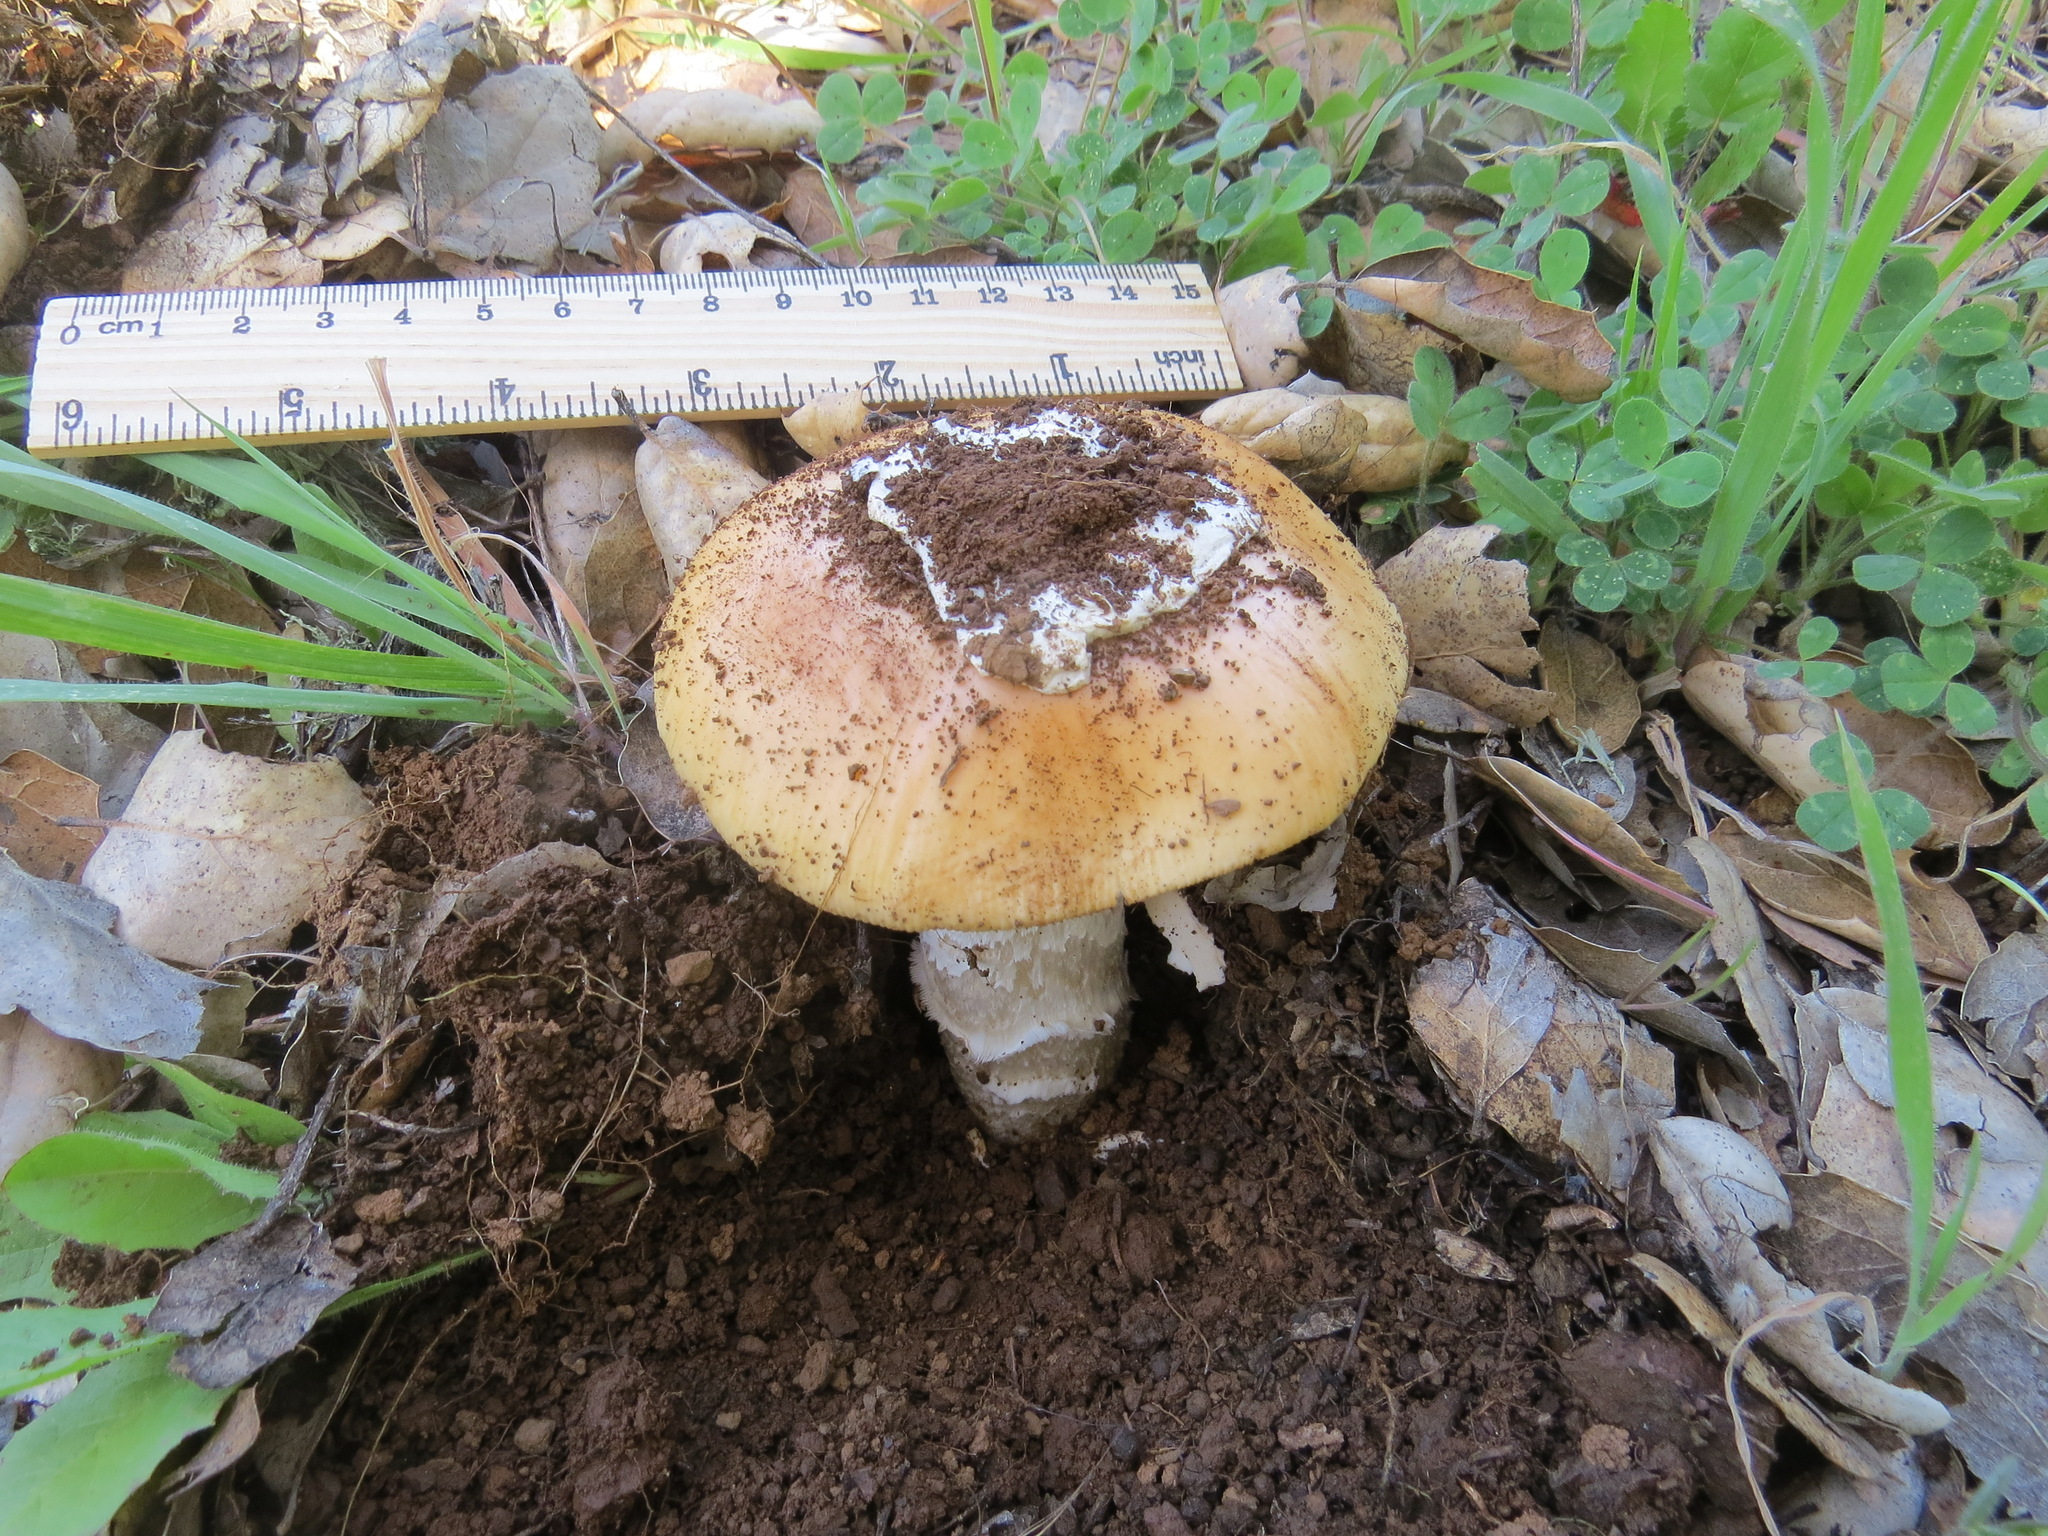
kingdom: Fungi
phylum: Basidiomycota
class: Agaricomycetes
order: Agaricales
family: Amanitaceae
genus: Amanita
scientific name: Amanita velosa
